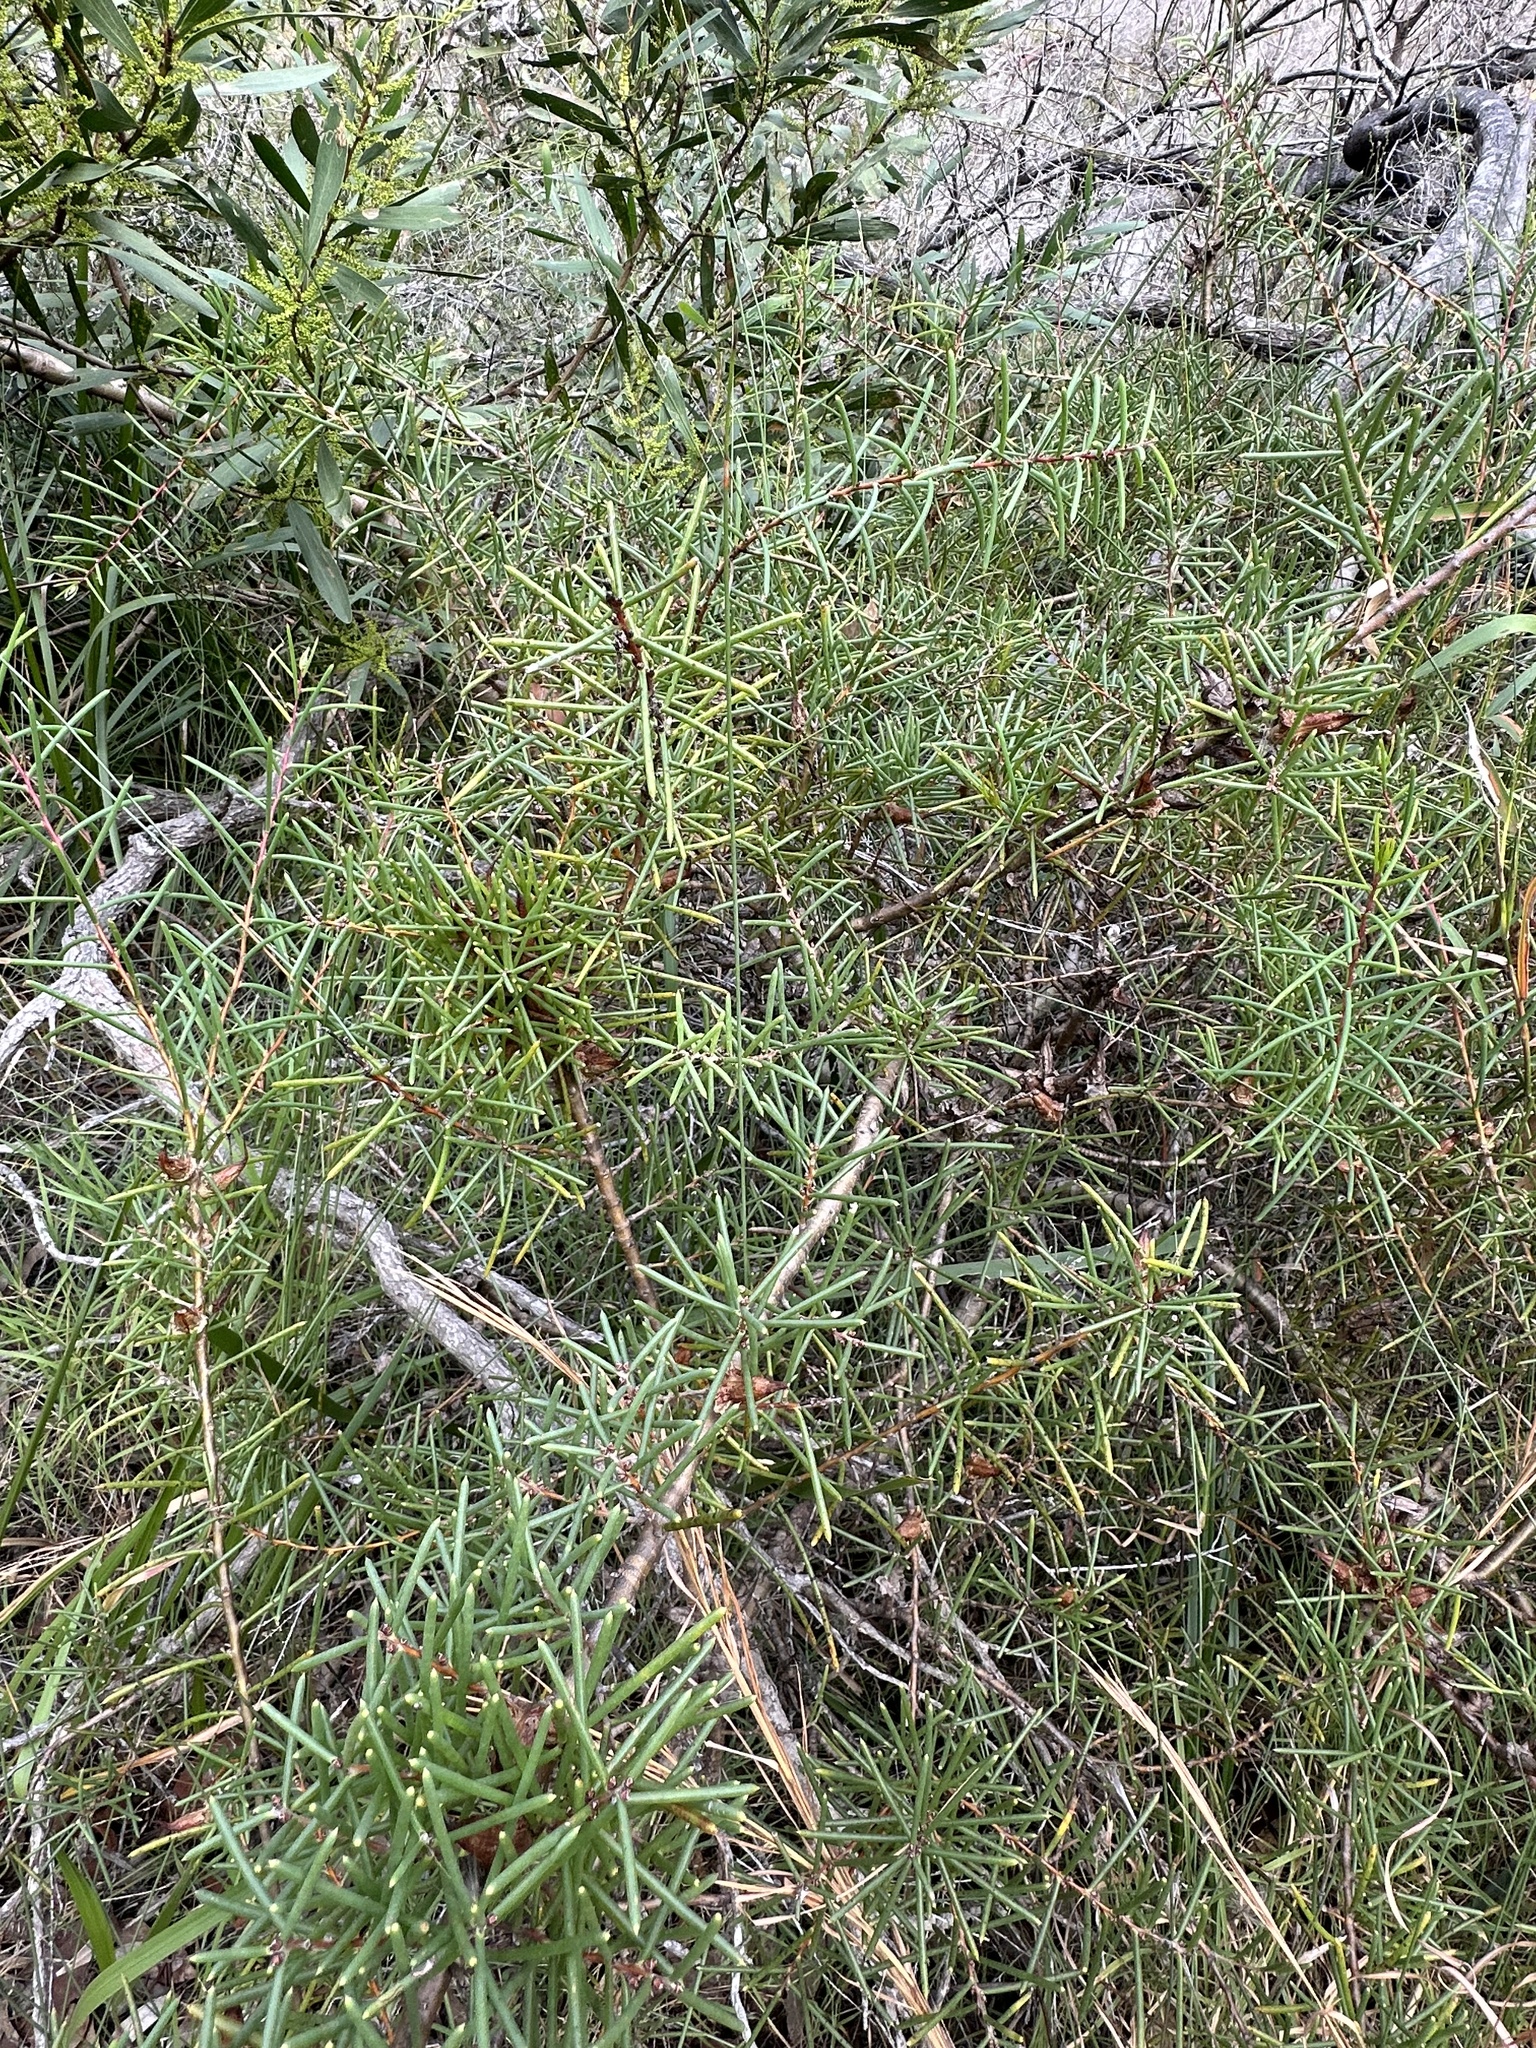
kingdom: Plantae
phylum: Tracheophyta
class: Magnoliopsida
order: Proteales
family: Proteaceae
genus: Hakea
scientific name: Hakea teretifolia
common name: Dagger hakea
